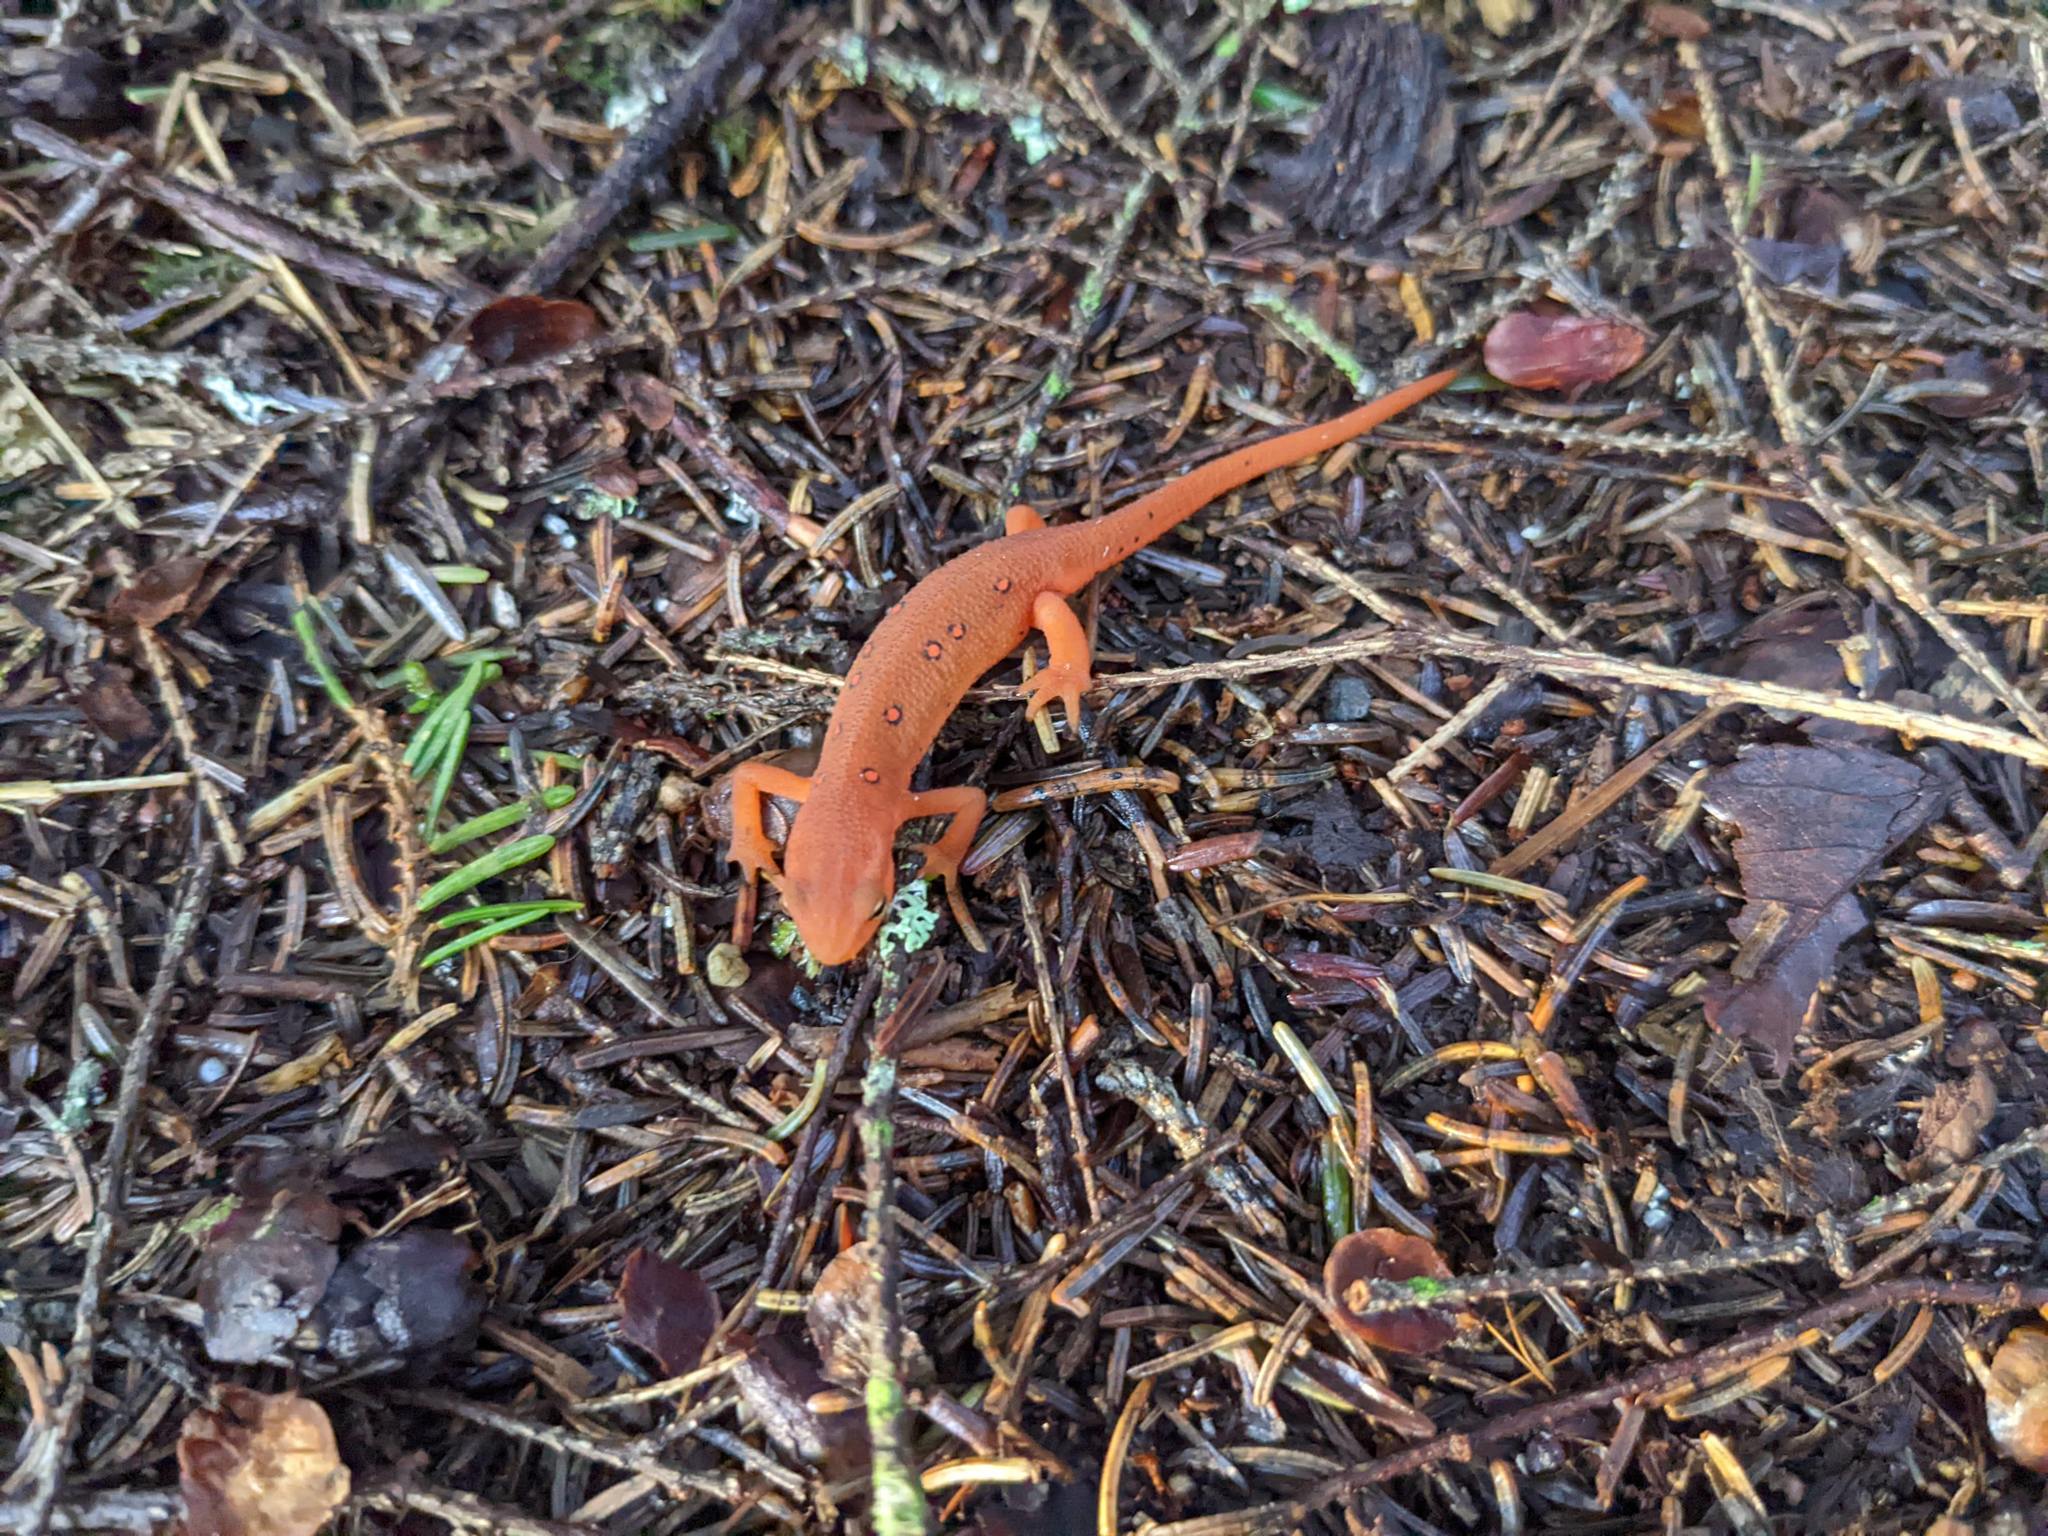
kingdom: Animalia
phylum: Chordata
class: Amphibia
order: Caudata
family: Salamandridae
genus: Notophthalmus
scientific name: Notophthalmus viridescens
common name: Eastern newt
